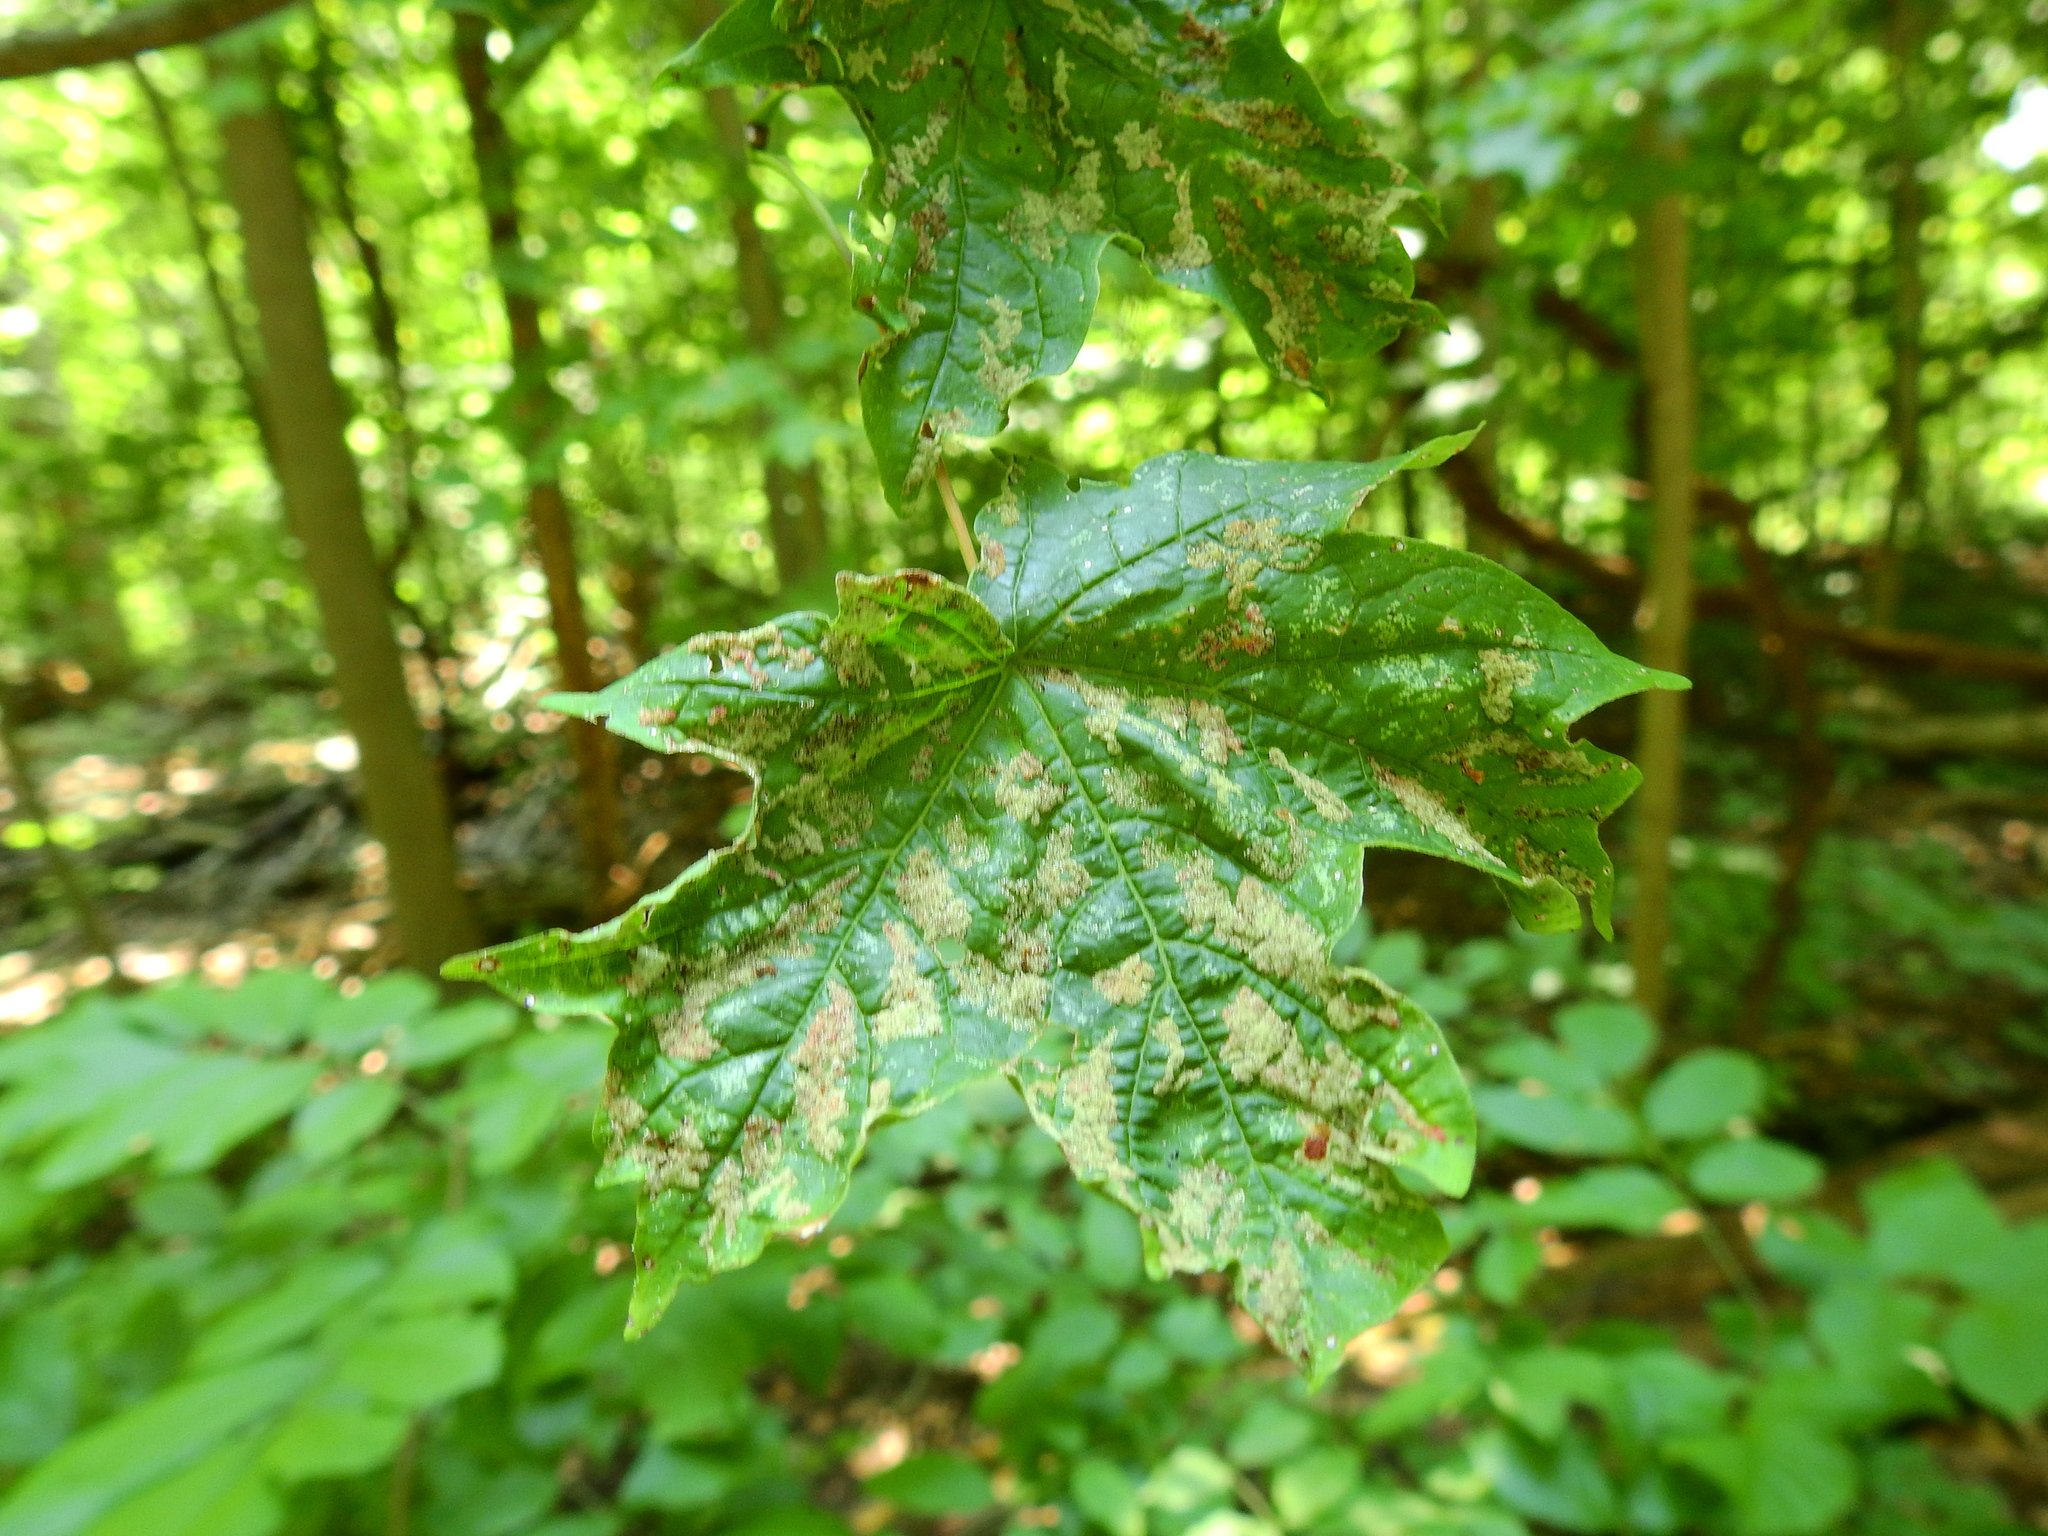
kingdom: Animalia
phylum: Arthropoda
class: Arachnida
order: Trombidiformes
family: Eriophyidae
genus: Aceria
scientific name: Aceria
